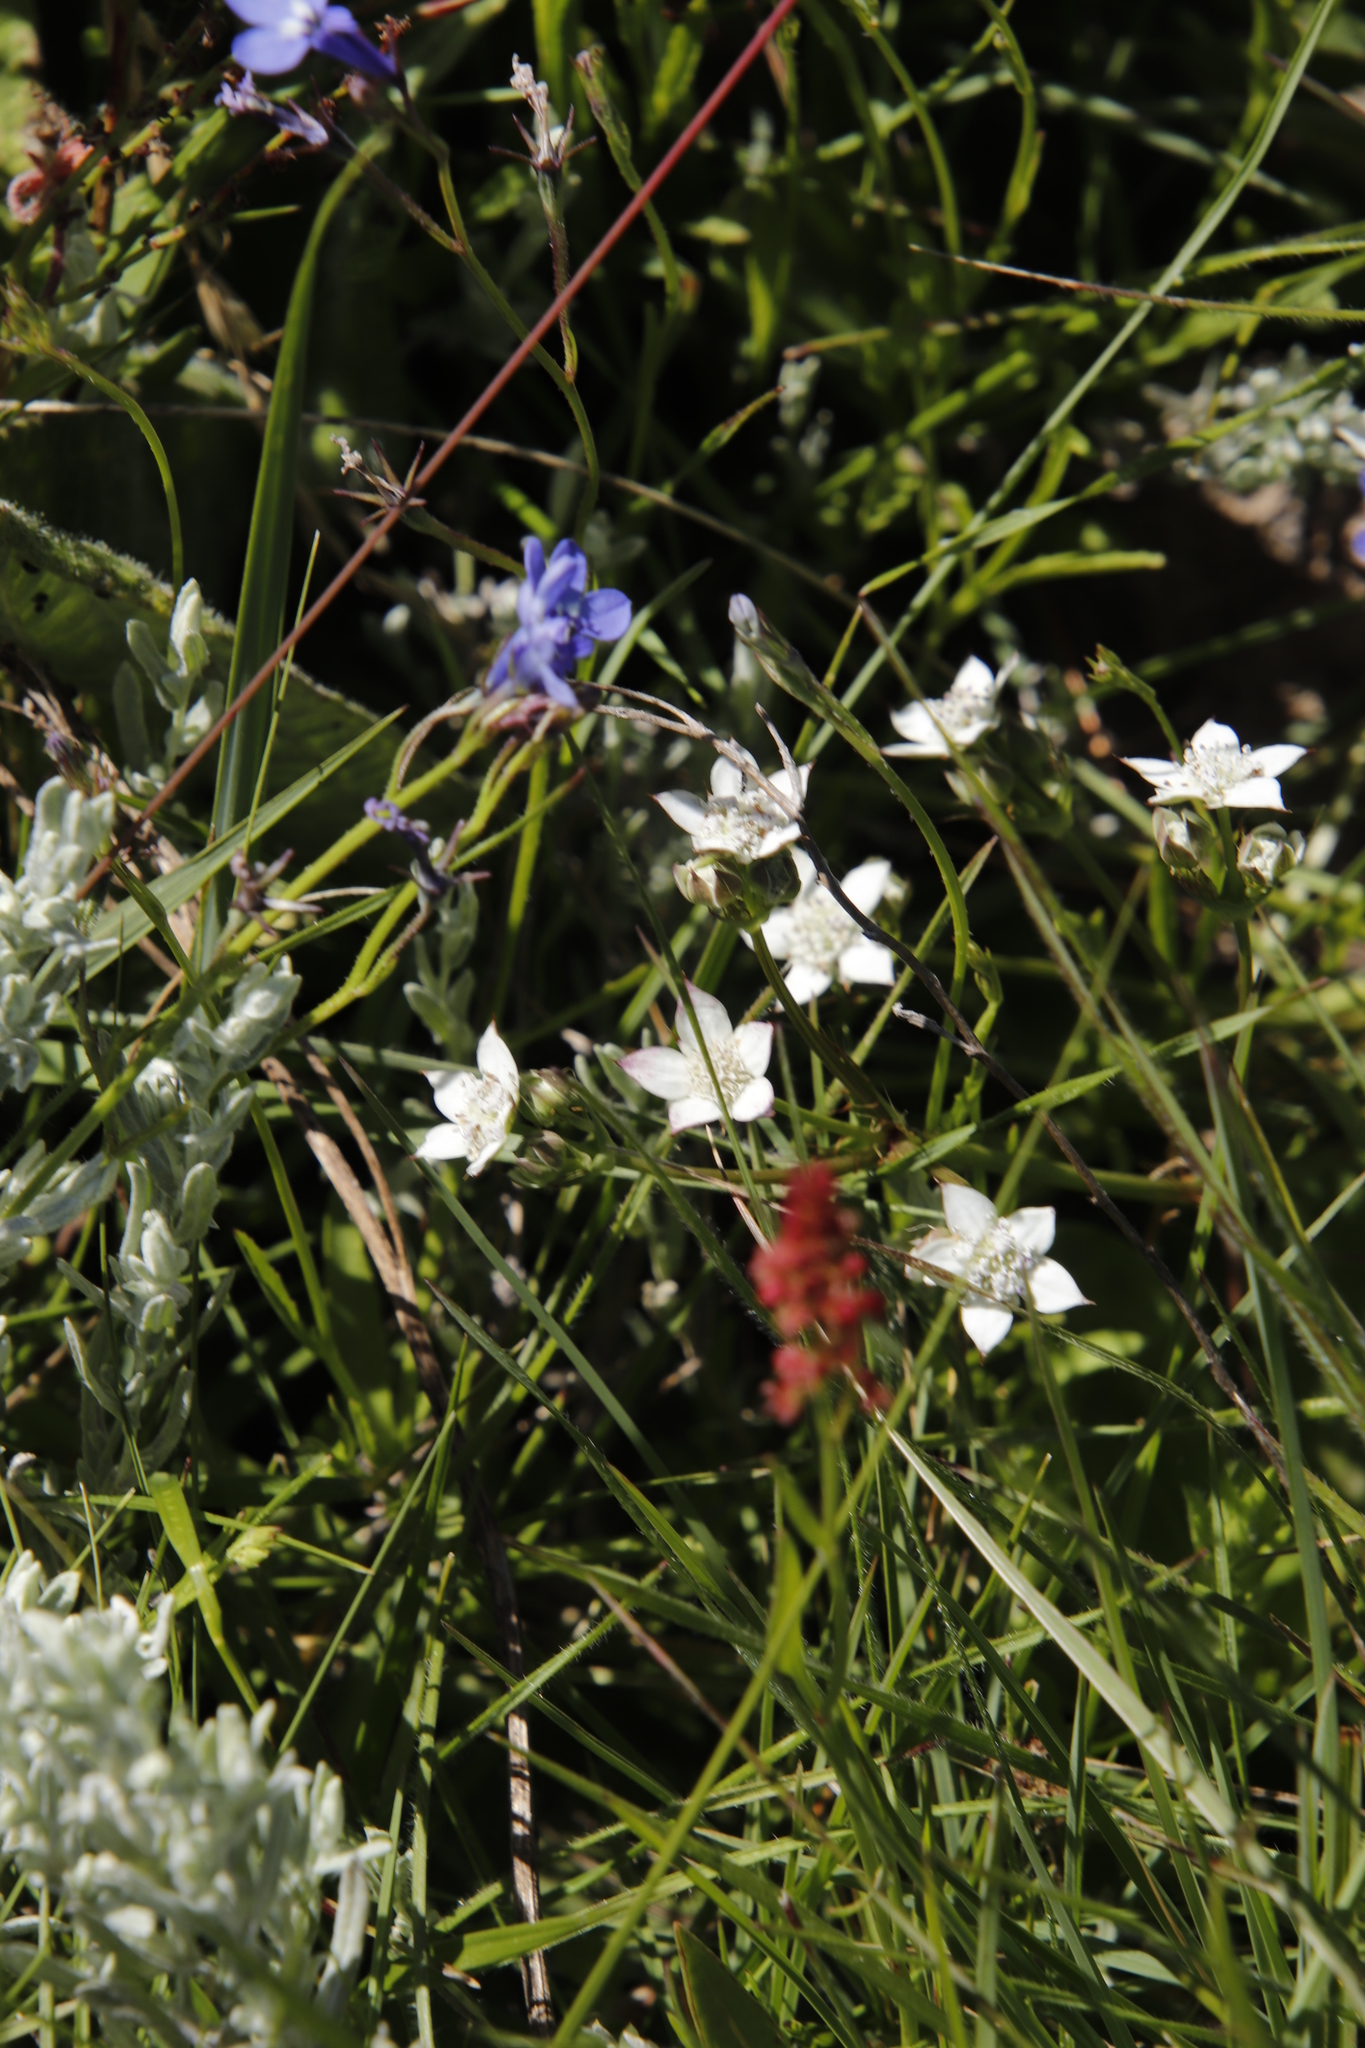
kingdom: Plantae
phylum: Tracheophyta
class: Magnoliopsida
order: Apiales
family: Apiaceae
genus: Alepidea
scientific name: Alepidea natalensis
